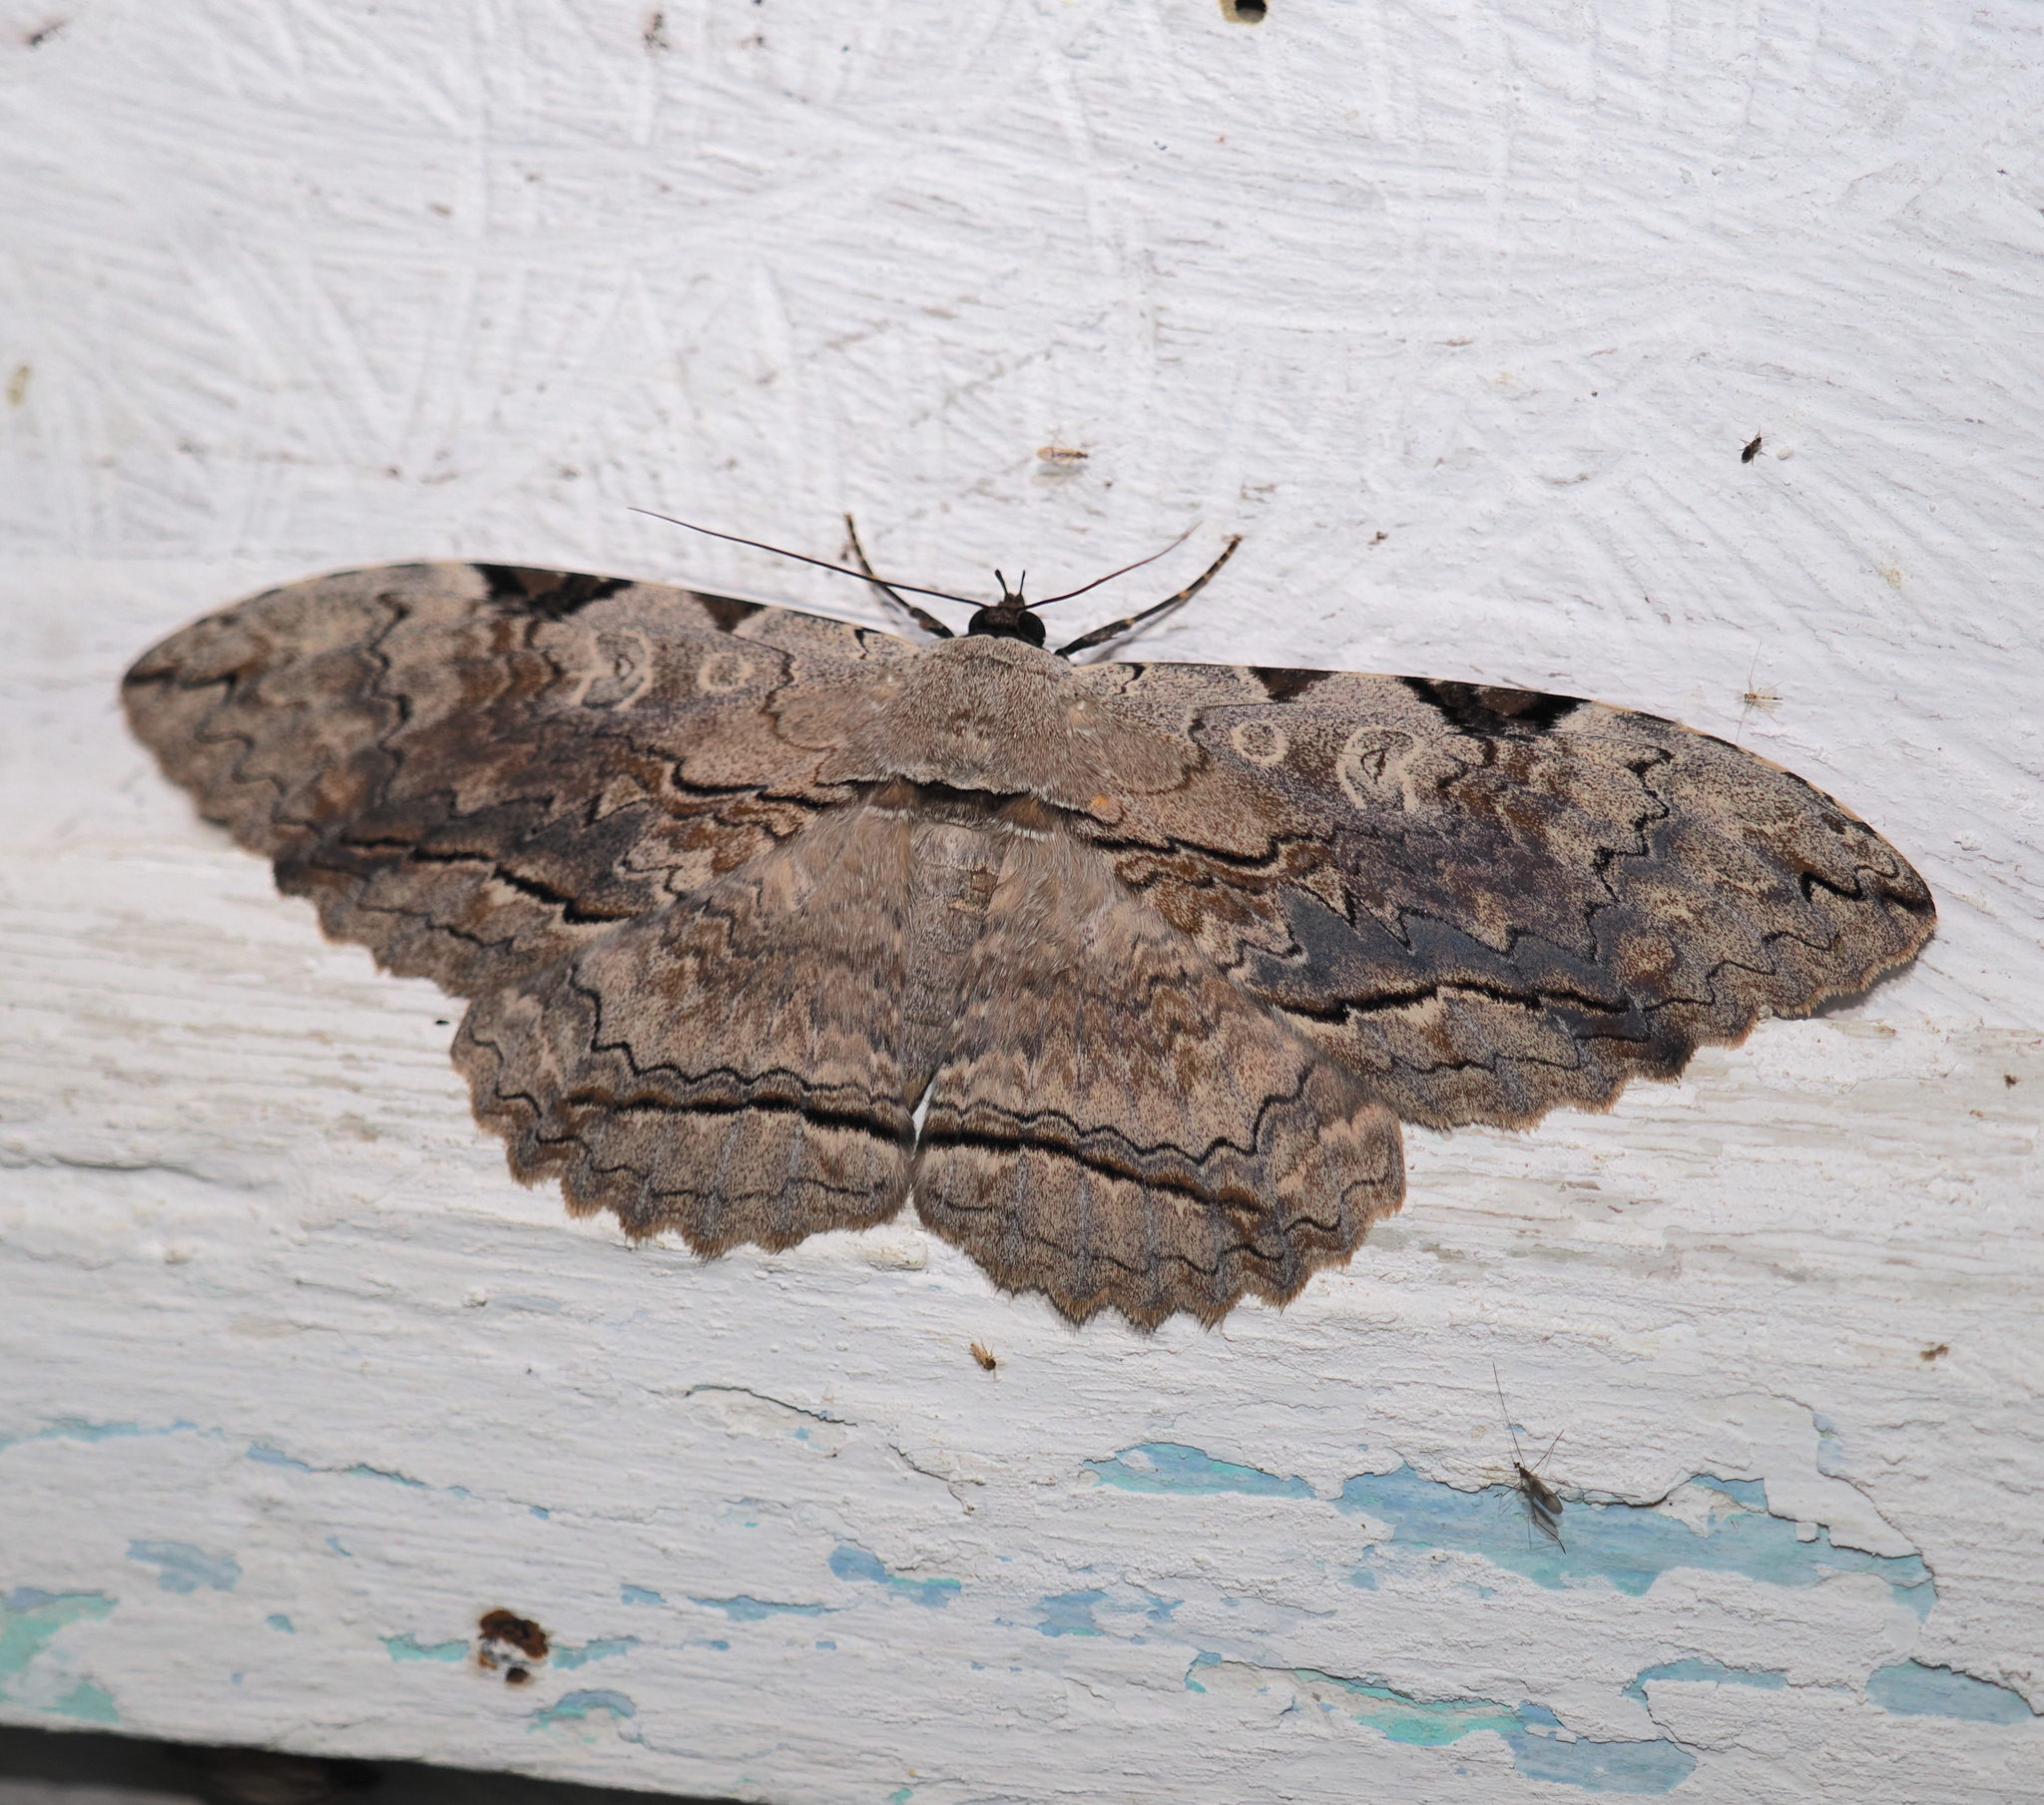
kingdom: Animalia
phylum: Arthropoda
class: Insecta
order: Lepidoptera
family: Erebidae
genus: Thysania
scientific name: Thysania zenobia
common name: Owl moth
